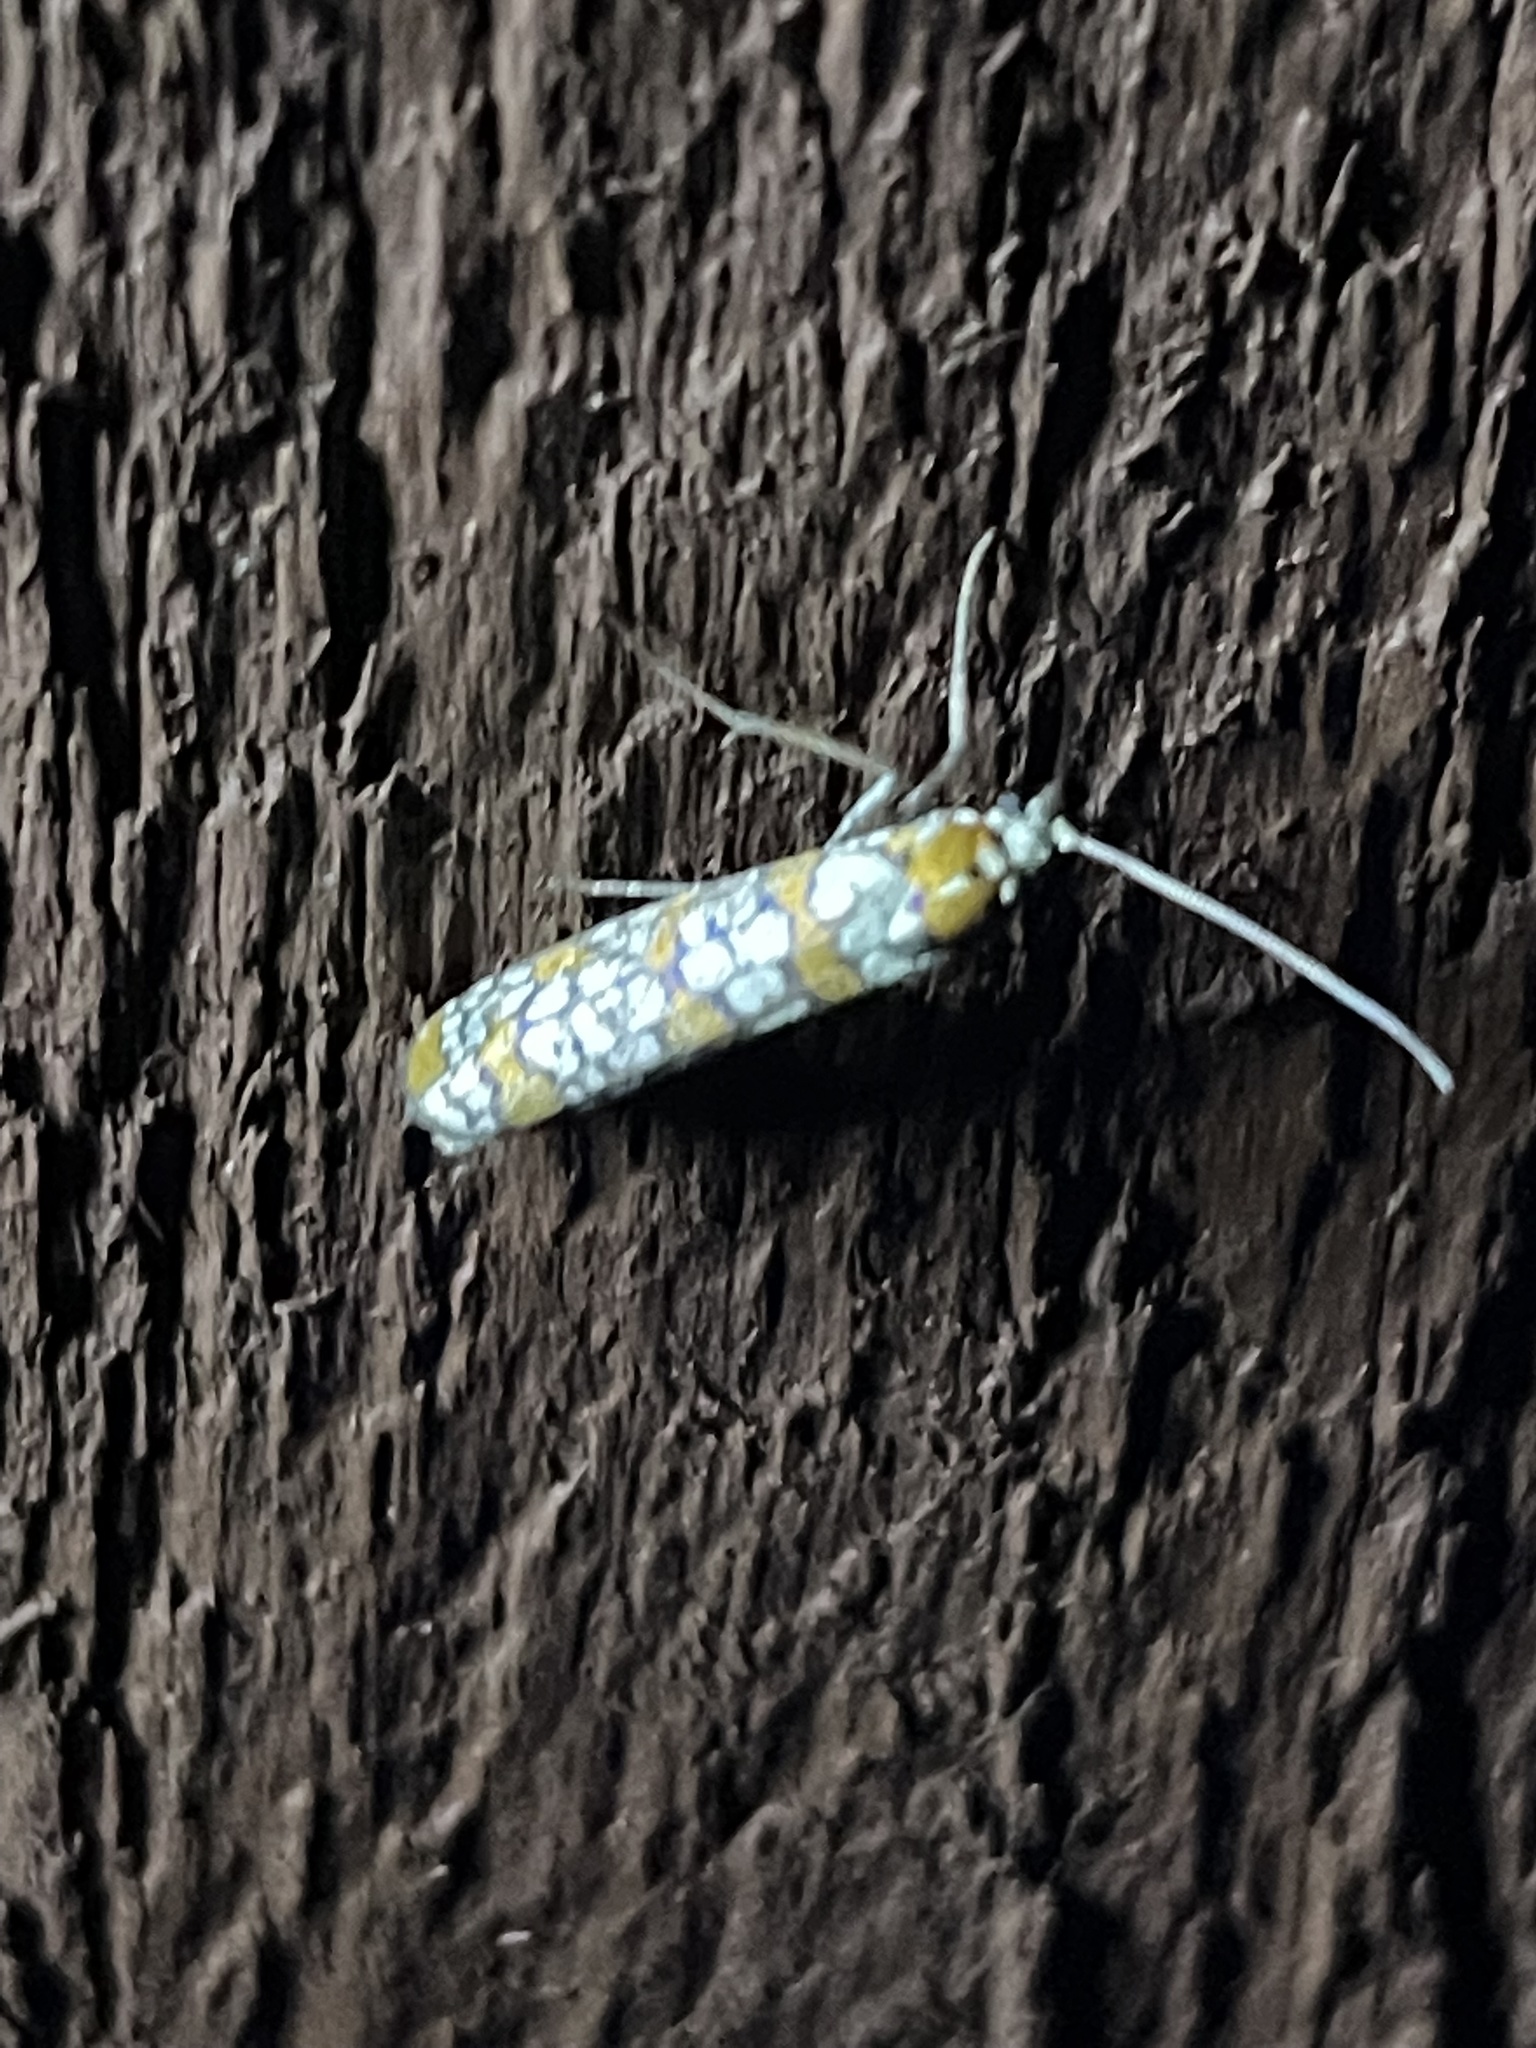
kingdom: Animalia
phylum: Arthropoda
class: Insecta
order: Lepidoptera
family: Attevidae
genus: Atteva
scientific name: Atteva punctella
